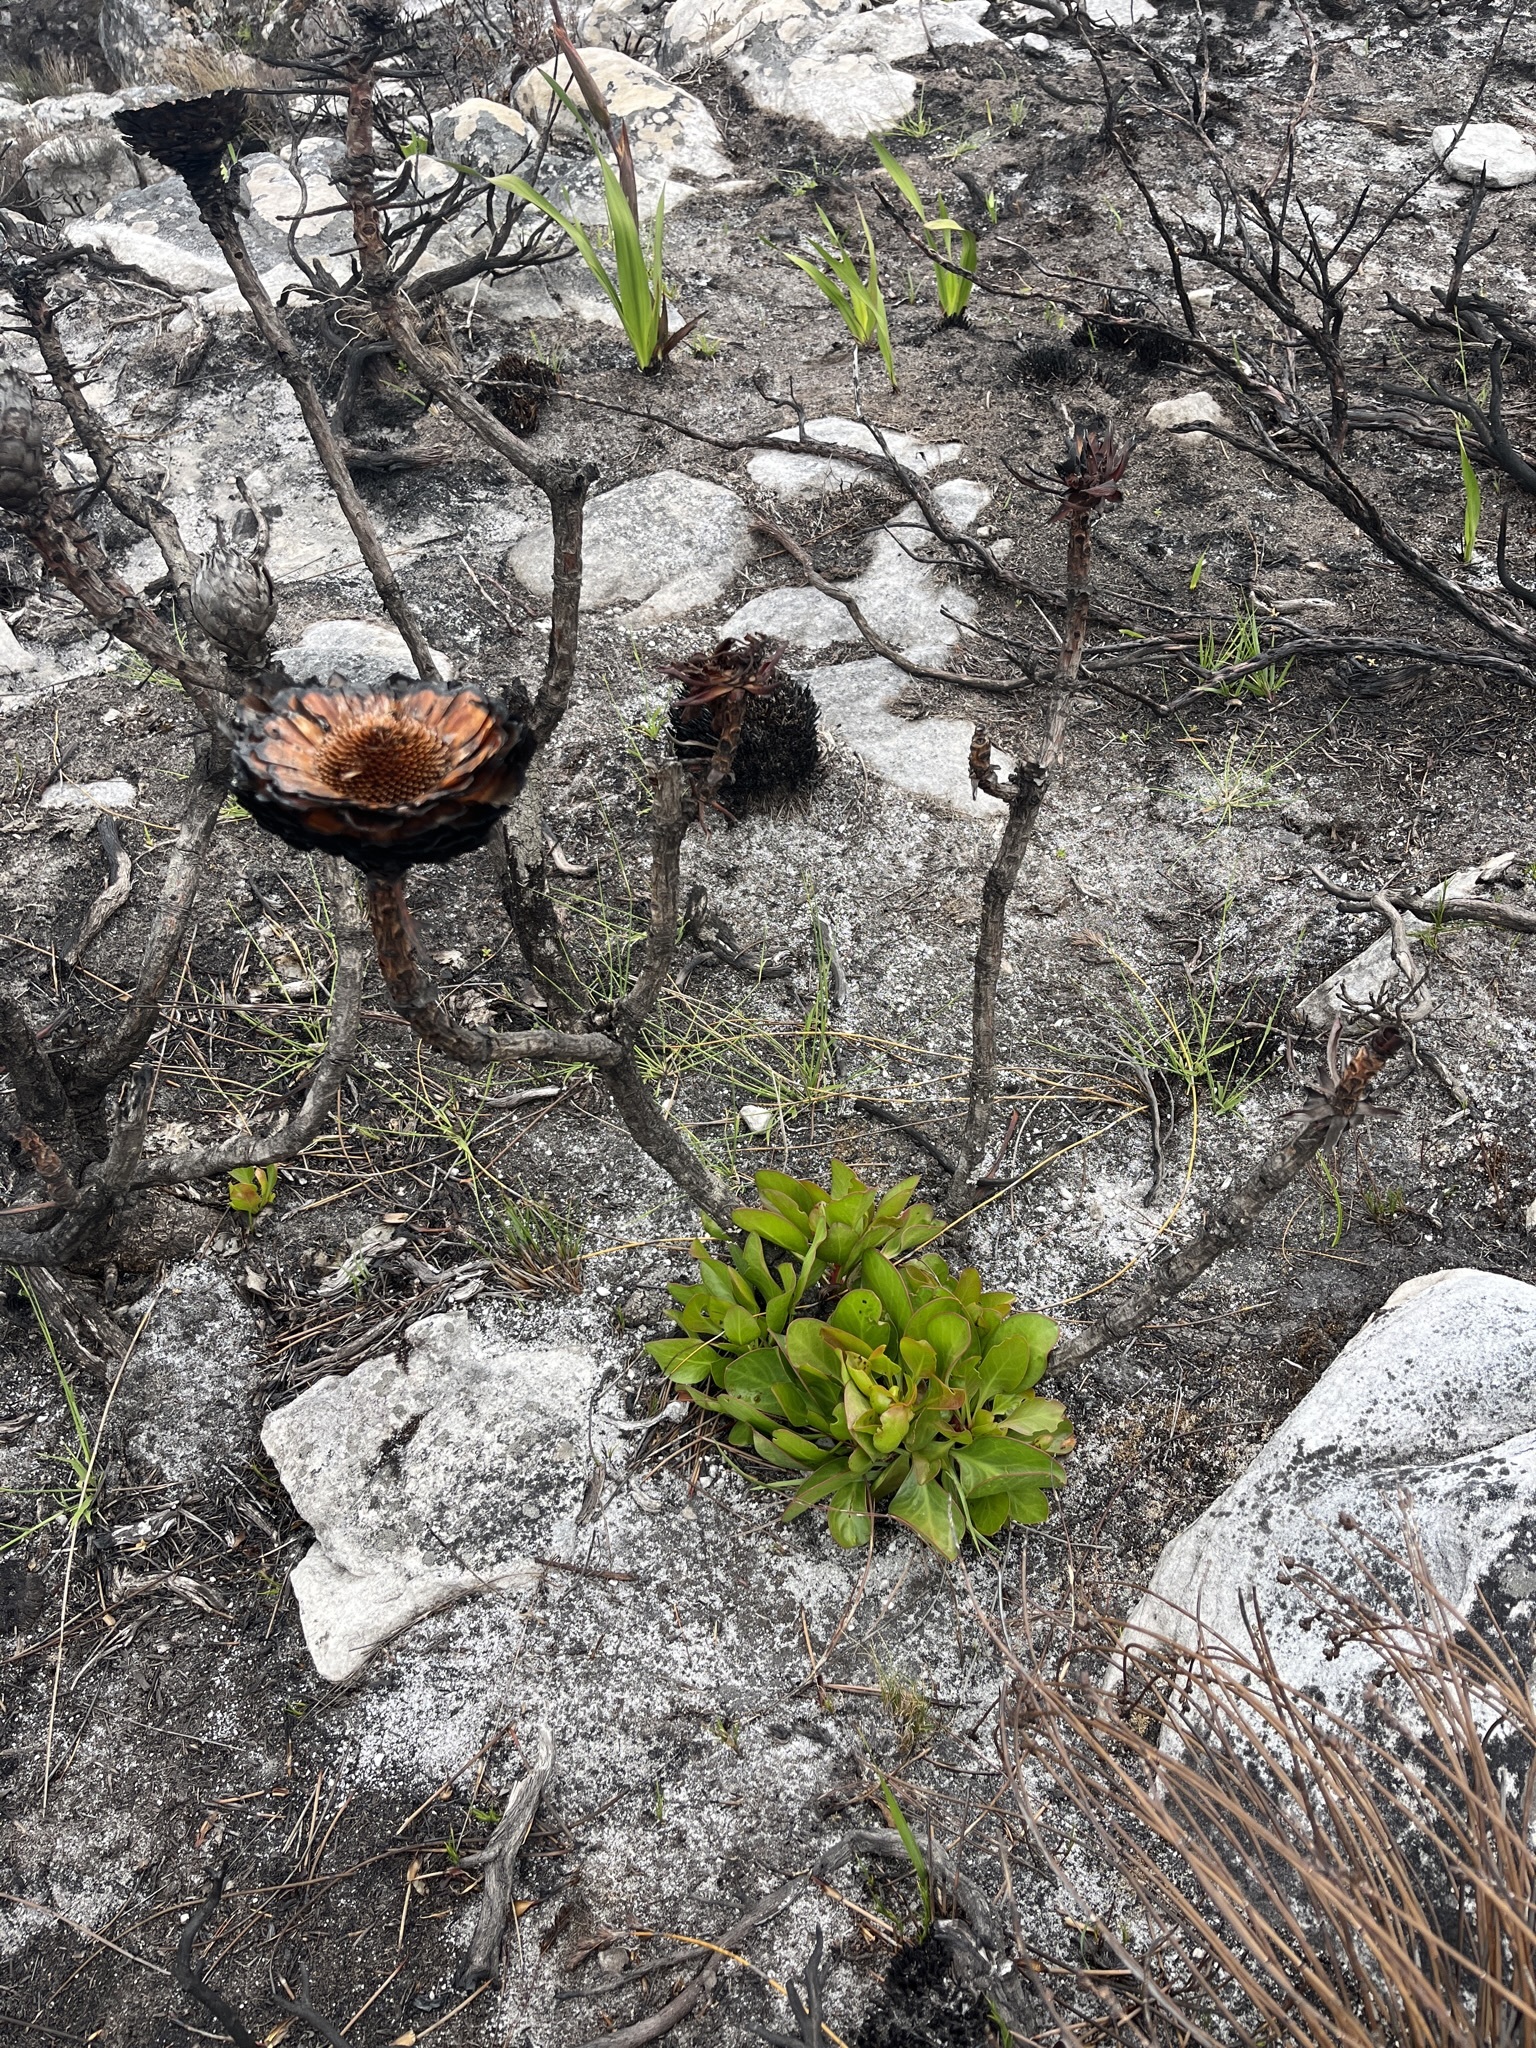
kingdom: Plantae
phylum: Tracheophyta
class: Magnoliopsida
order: Proteales
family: Proteaceae
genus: Protea
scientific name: Protea cynaroides
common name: King protea
